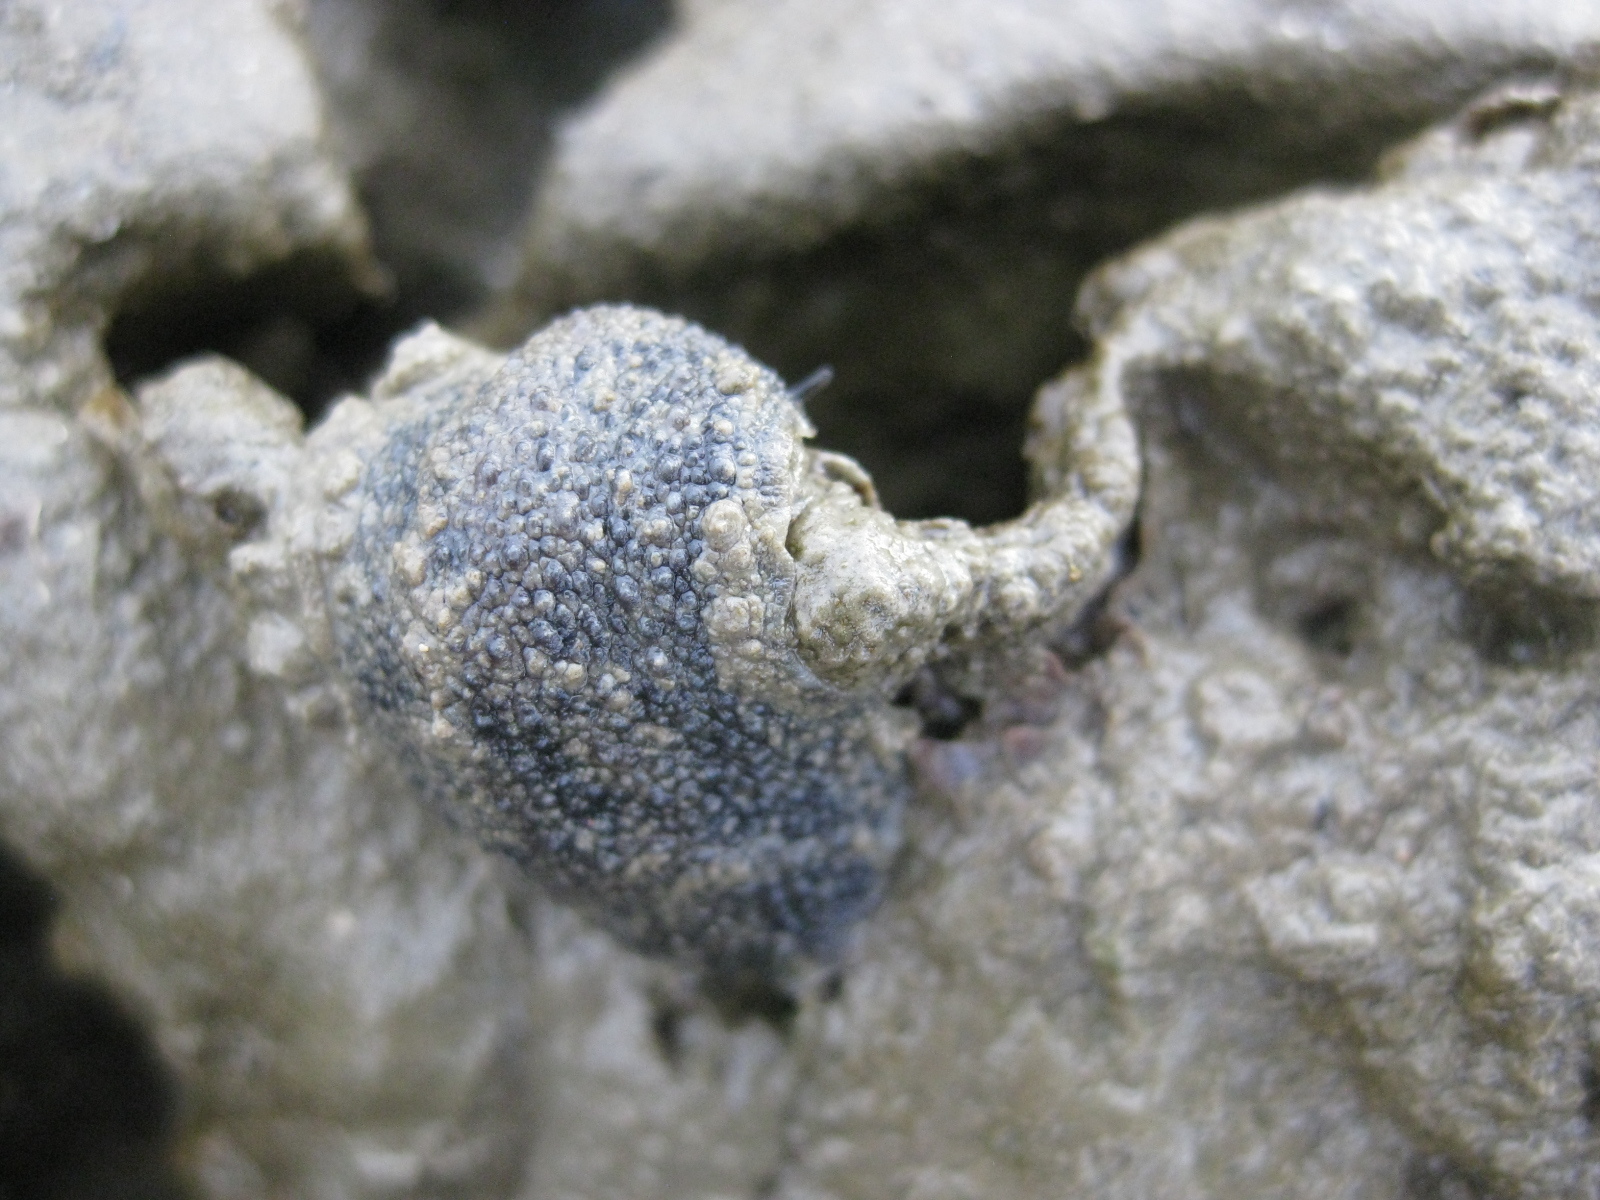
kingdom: Animalia
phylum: Mollusca
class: Gastropoda
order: Systellommatophora
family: Onchidiidae
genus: Onchidella
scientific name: Onchidella nigricans
